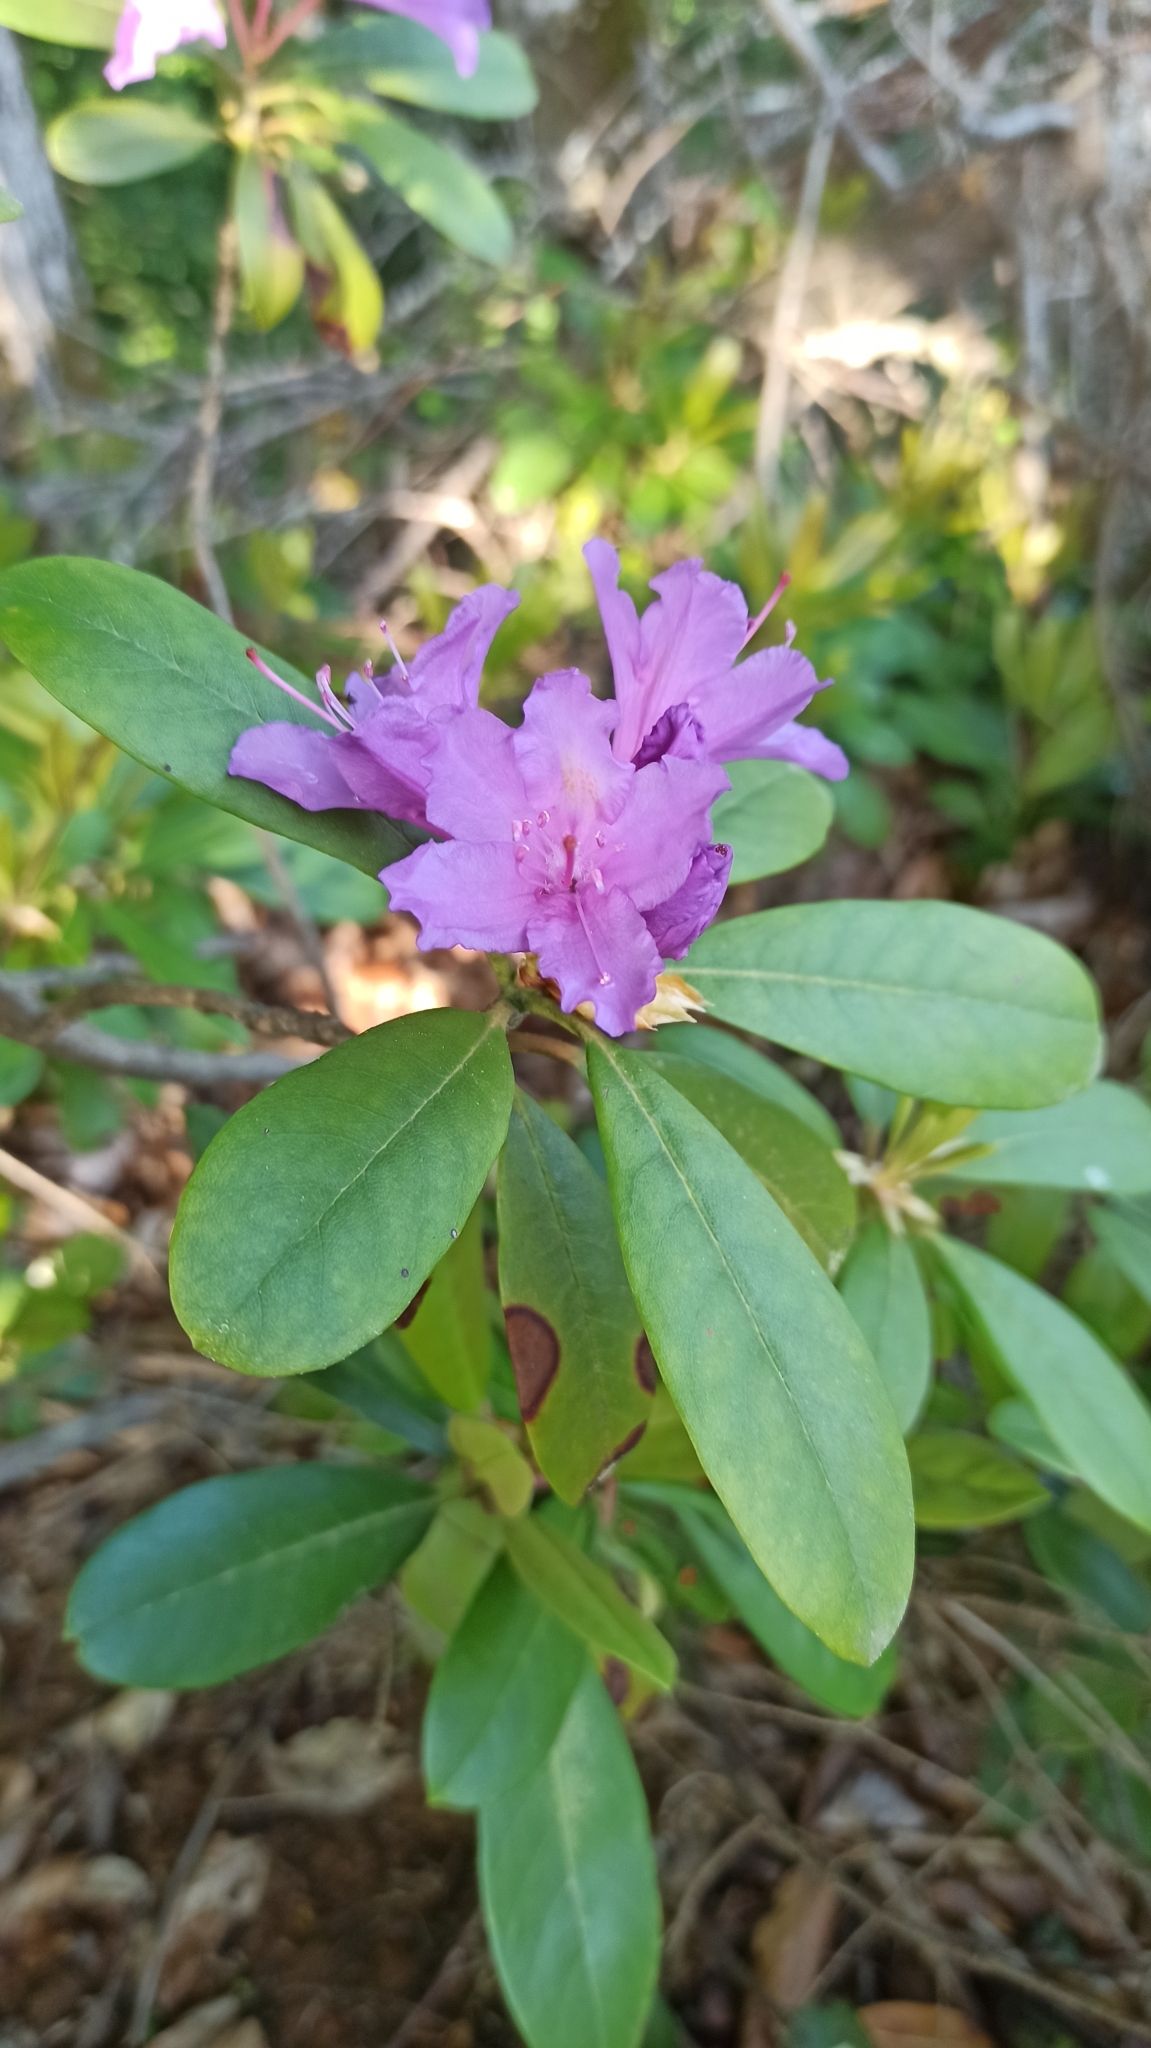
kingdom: Plantae
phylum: Tracheophyta
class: Magnoliopsida
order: Ericales
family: Ericaceae
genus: Rhododendron
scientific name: Rhododendron ponticum
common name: Rhododendron
